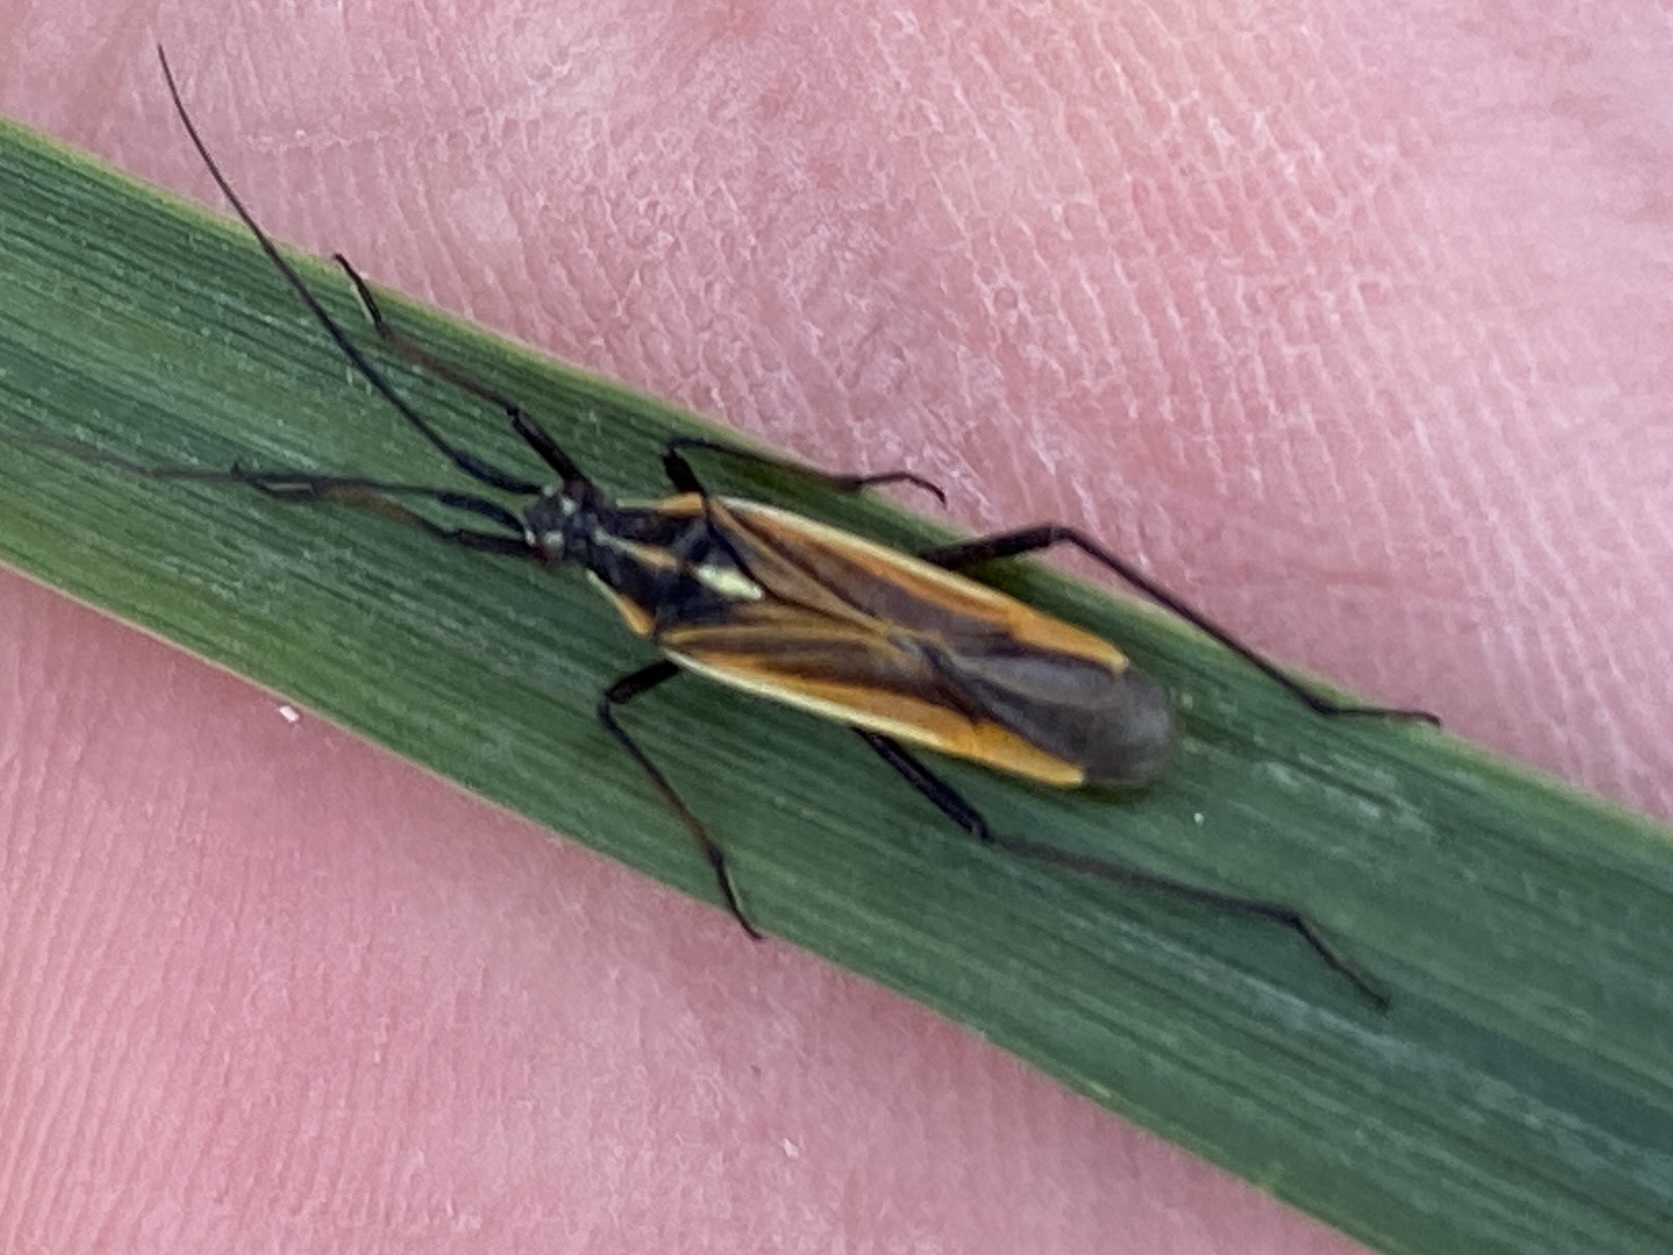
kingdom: Animalia
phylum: Arthropoda
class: Insecta
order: Hemiptera
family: Miridae
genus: Leptopterna
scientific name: Leptopterna dolabrata
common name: Meadow plant bug
